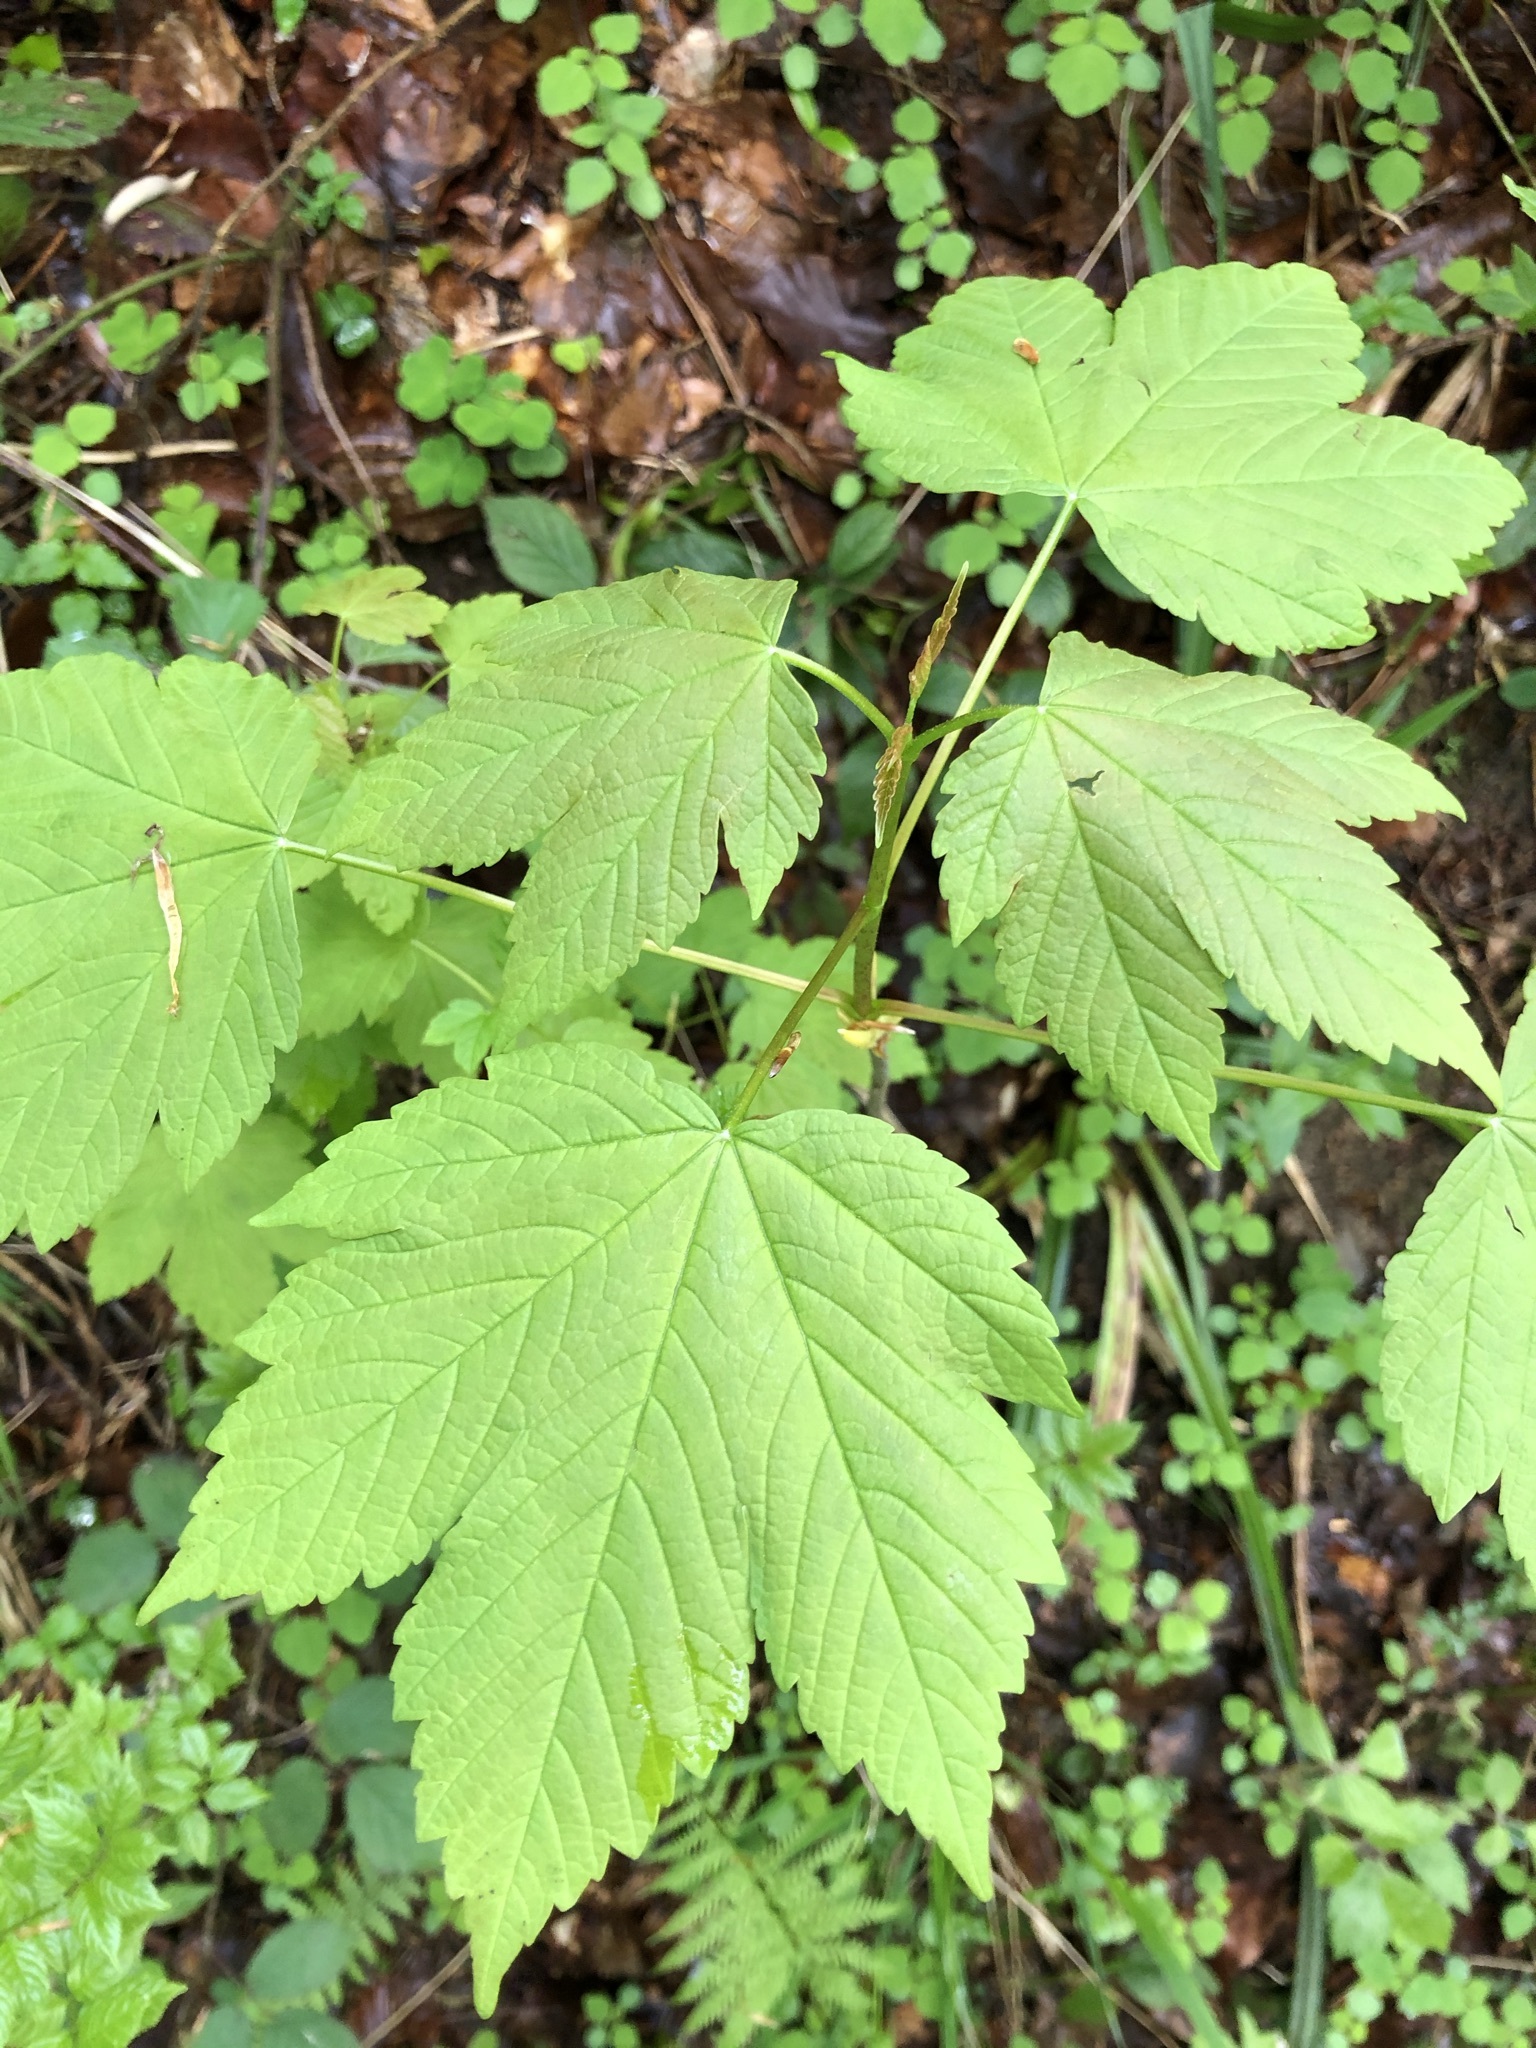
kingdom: Plantae
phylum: Tracheophyta
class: Magnoliopsida
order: Sapindales
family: Sapindaceae
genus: Acer
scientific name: Acer pseudoplatanus
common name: Sycamore
